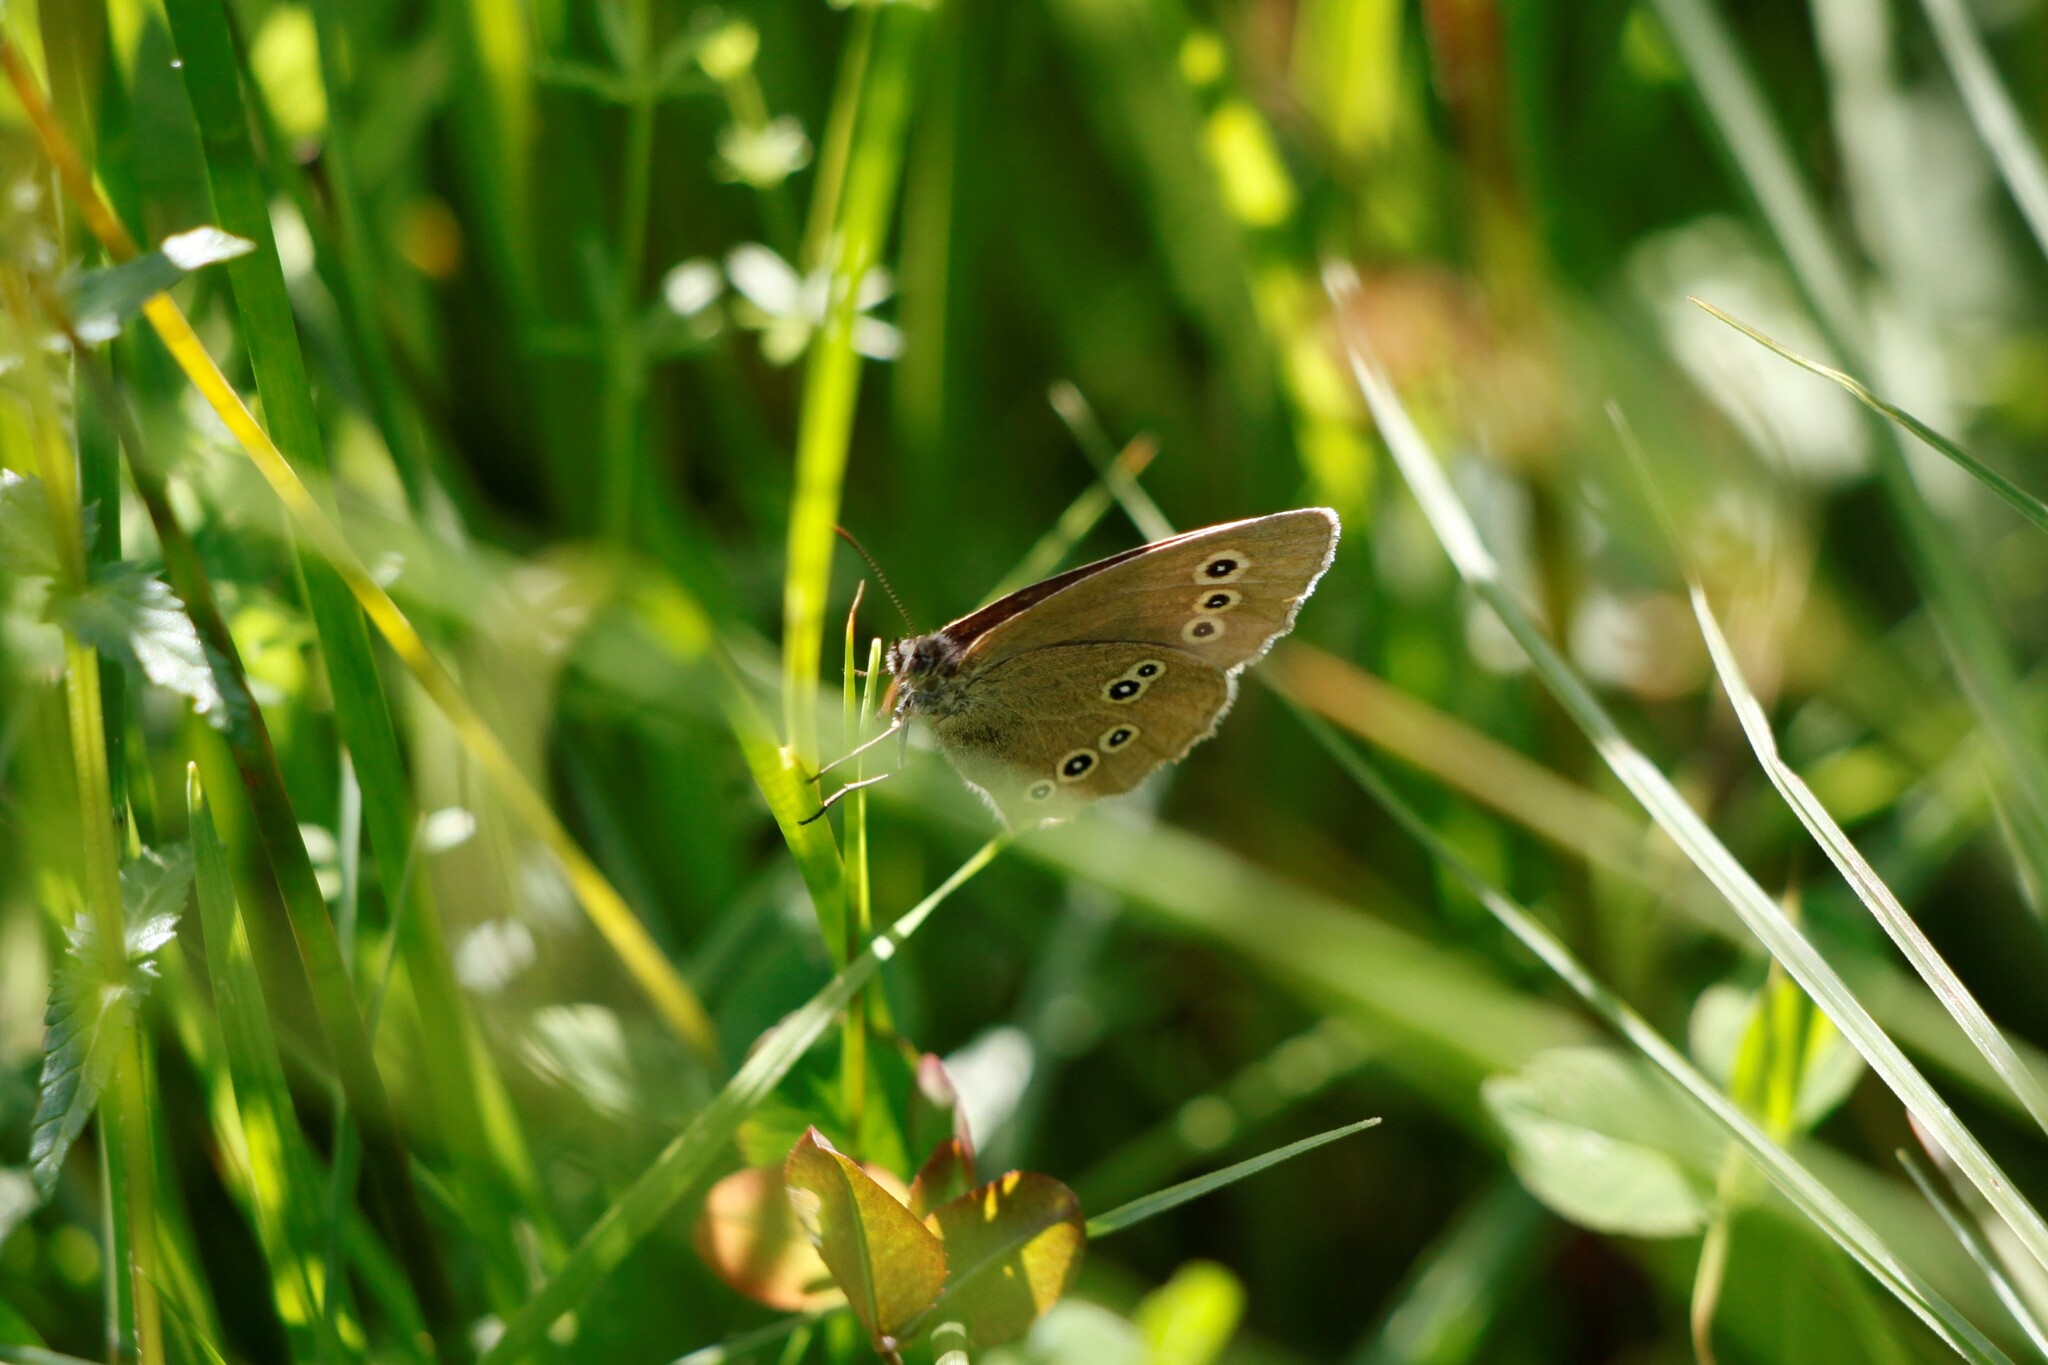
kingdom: Animalia
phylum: Arthropoda
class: Insecta
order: Lepidoptera
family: Nymphalidae
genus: Aphantopus
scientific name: Aphantopus hyperantus
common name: Ringlet
